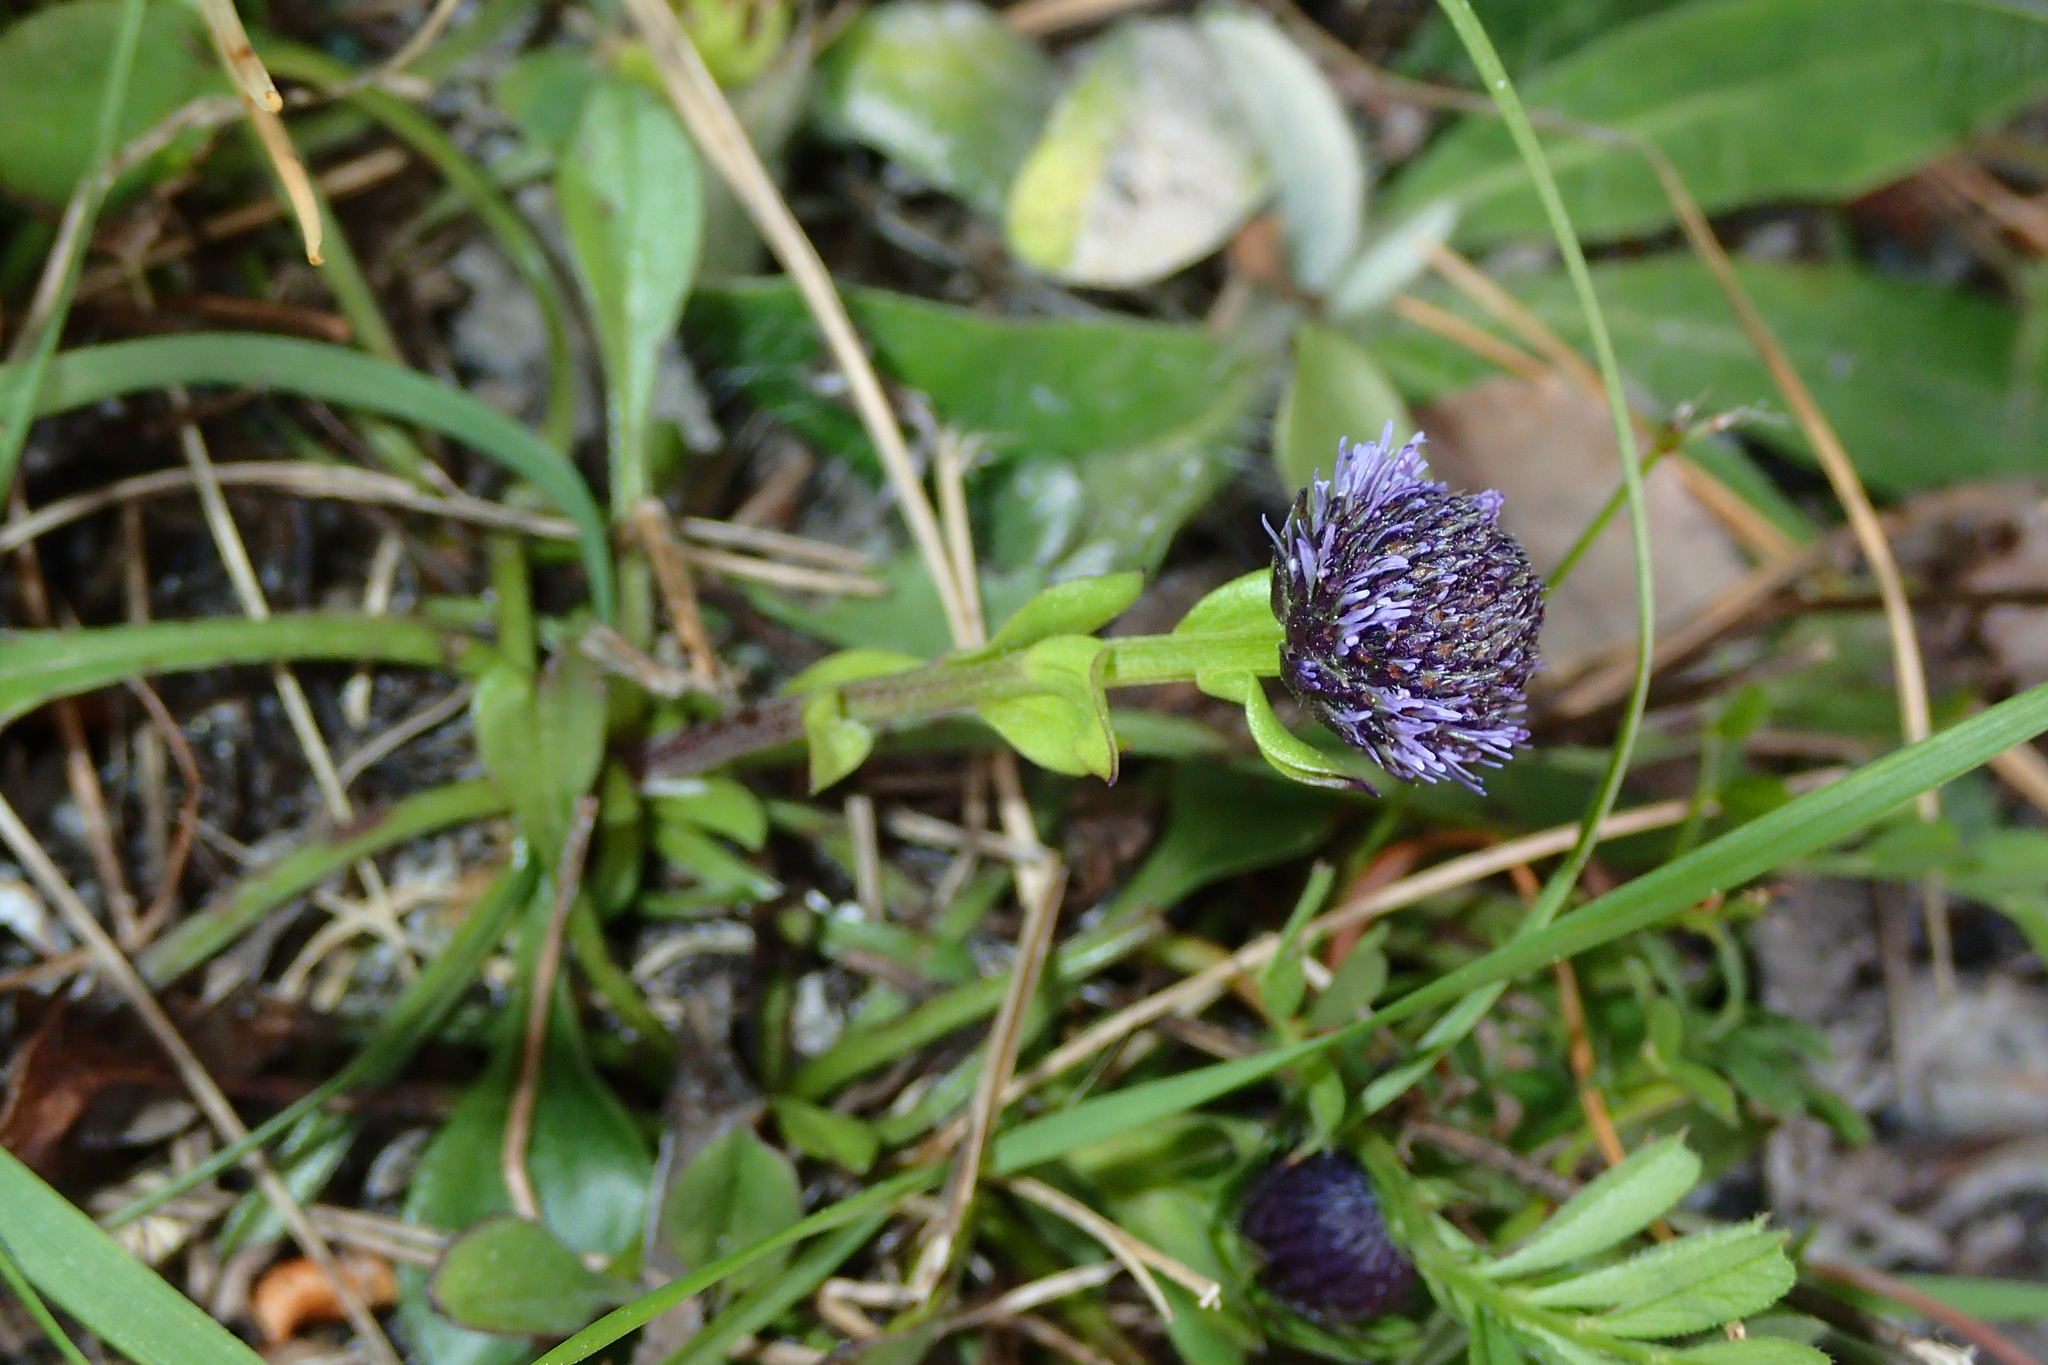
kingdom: Plantae
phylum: Tracheophyta
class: Magnoliopsida
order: Lamiales
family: Plantaginaceae
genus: Globularia
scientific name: Globularia bisnagarica
